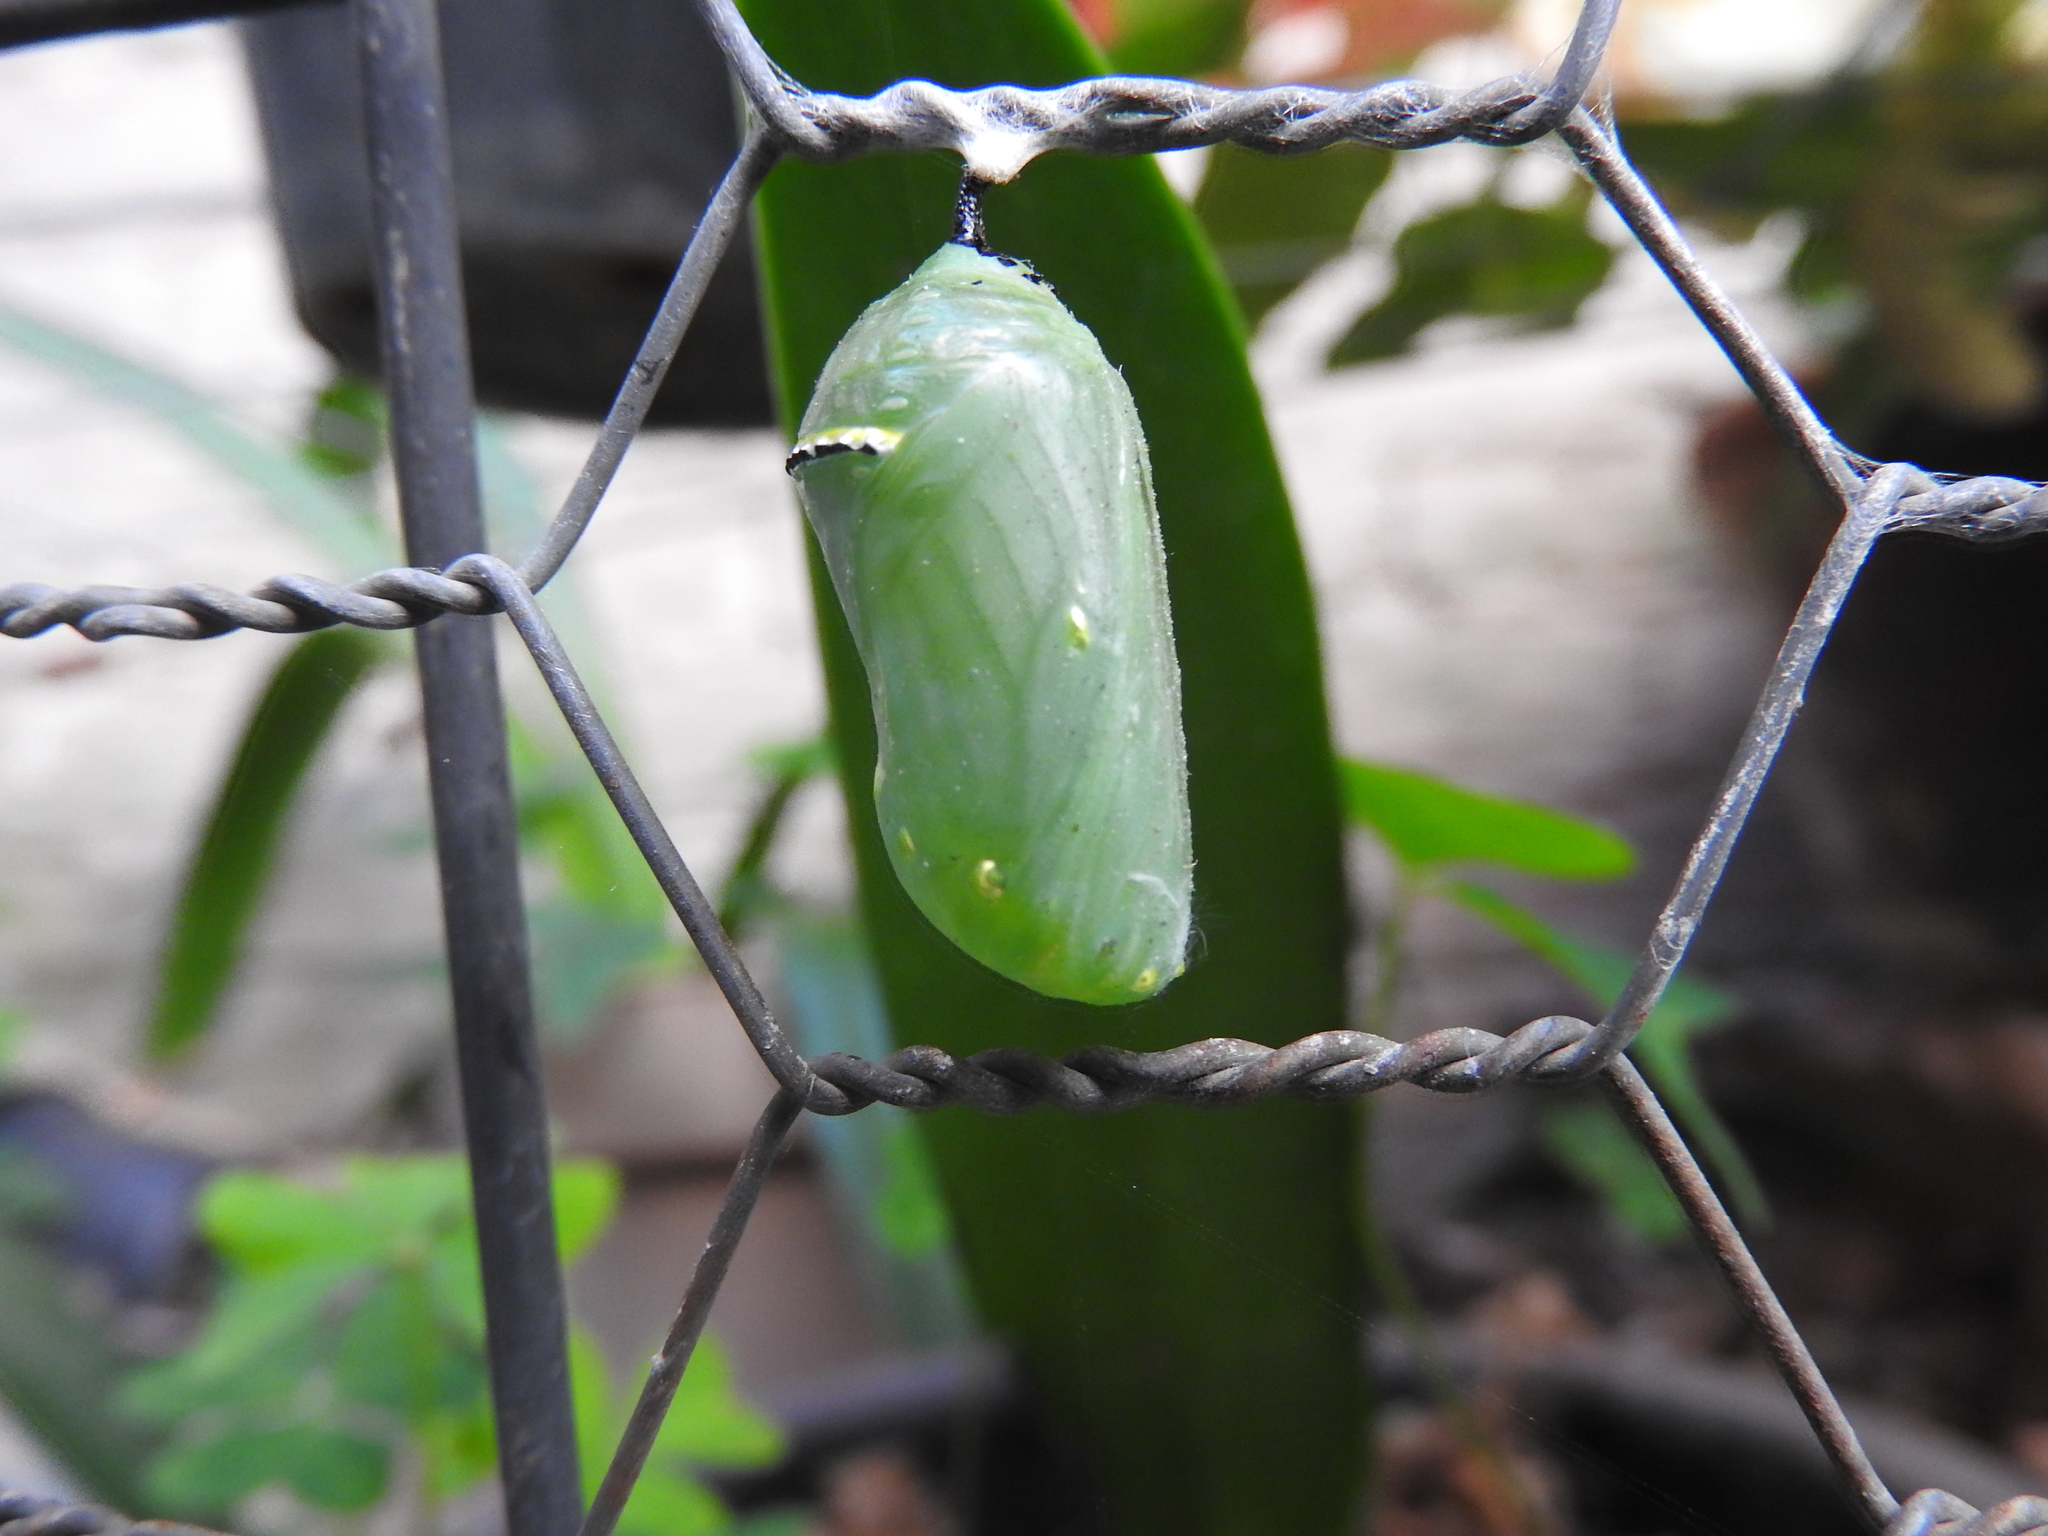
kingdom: Animalia
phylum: Arthropoda
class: Insecta
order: Lepidoptera
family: Nymphalidae
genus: Danaus
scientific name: Danaus plexippus
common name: Monarch
